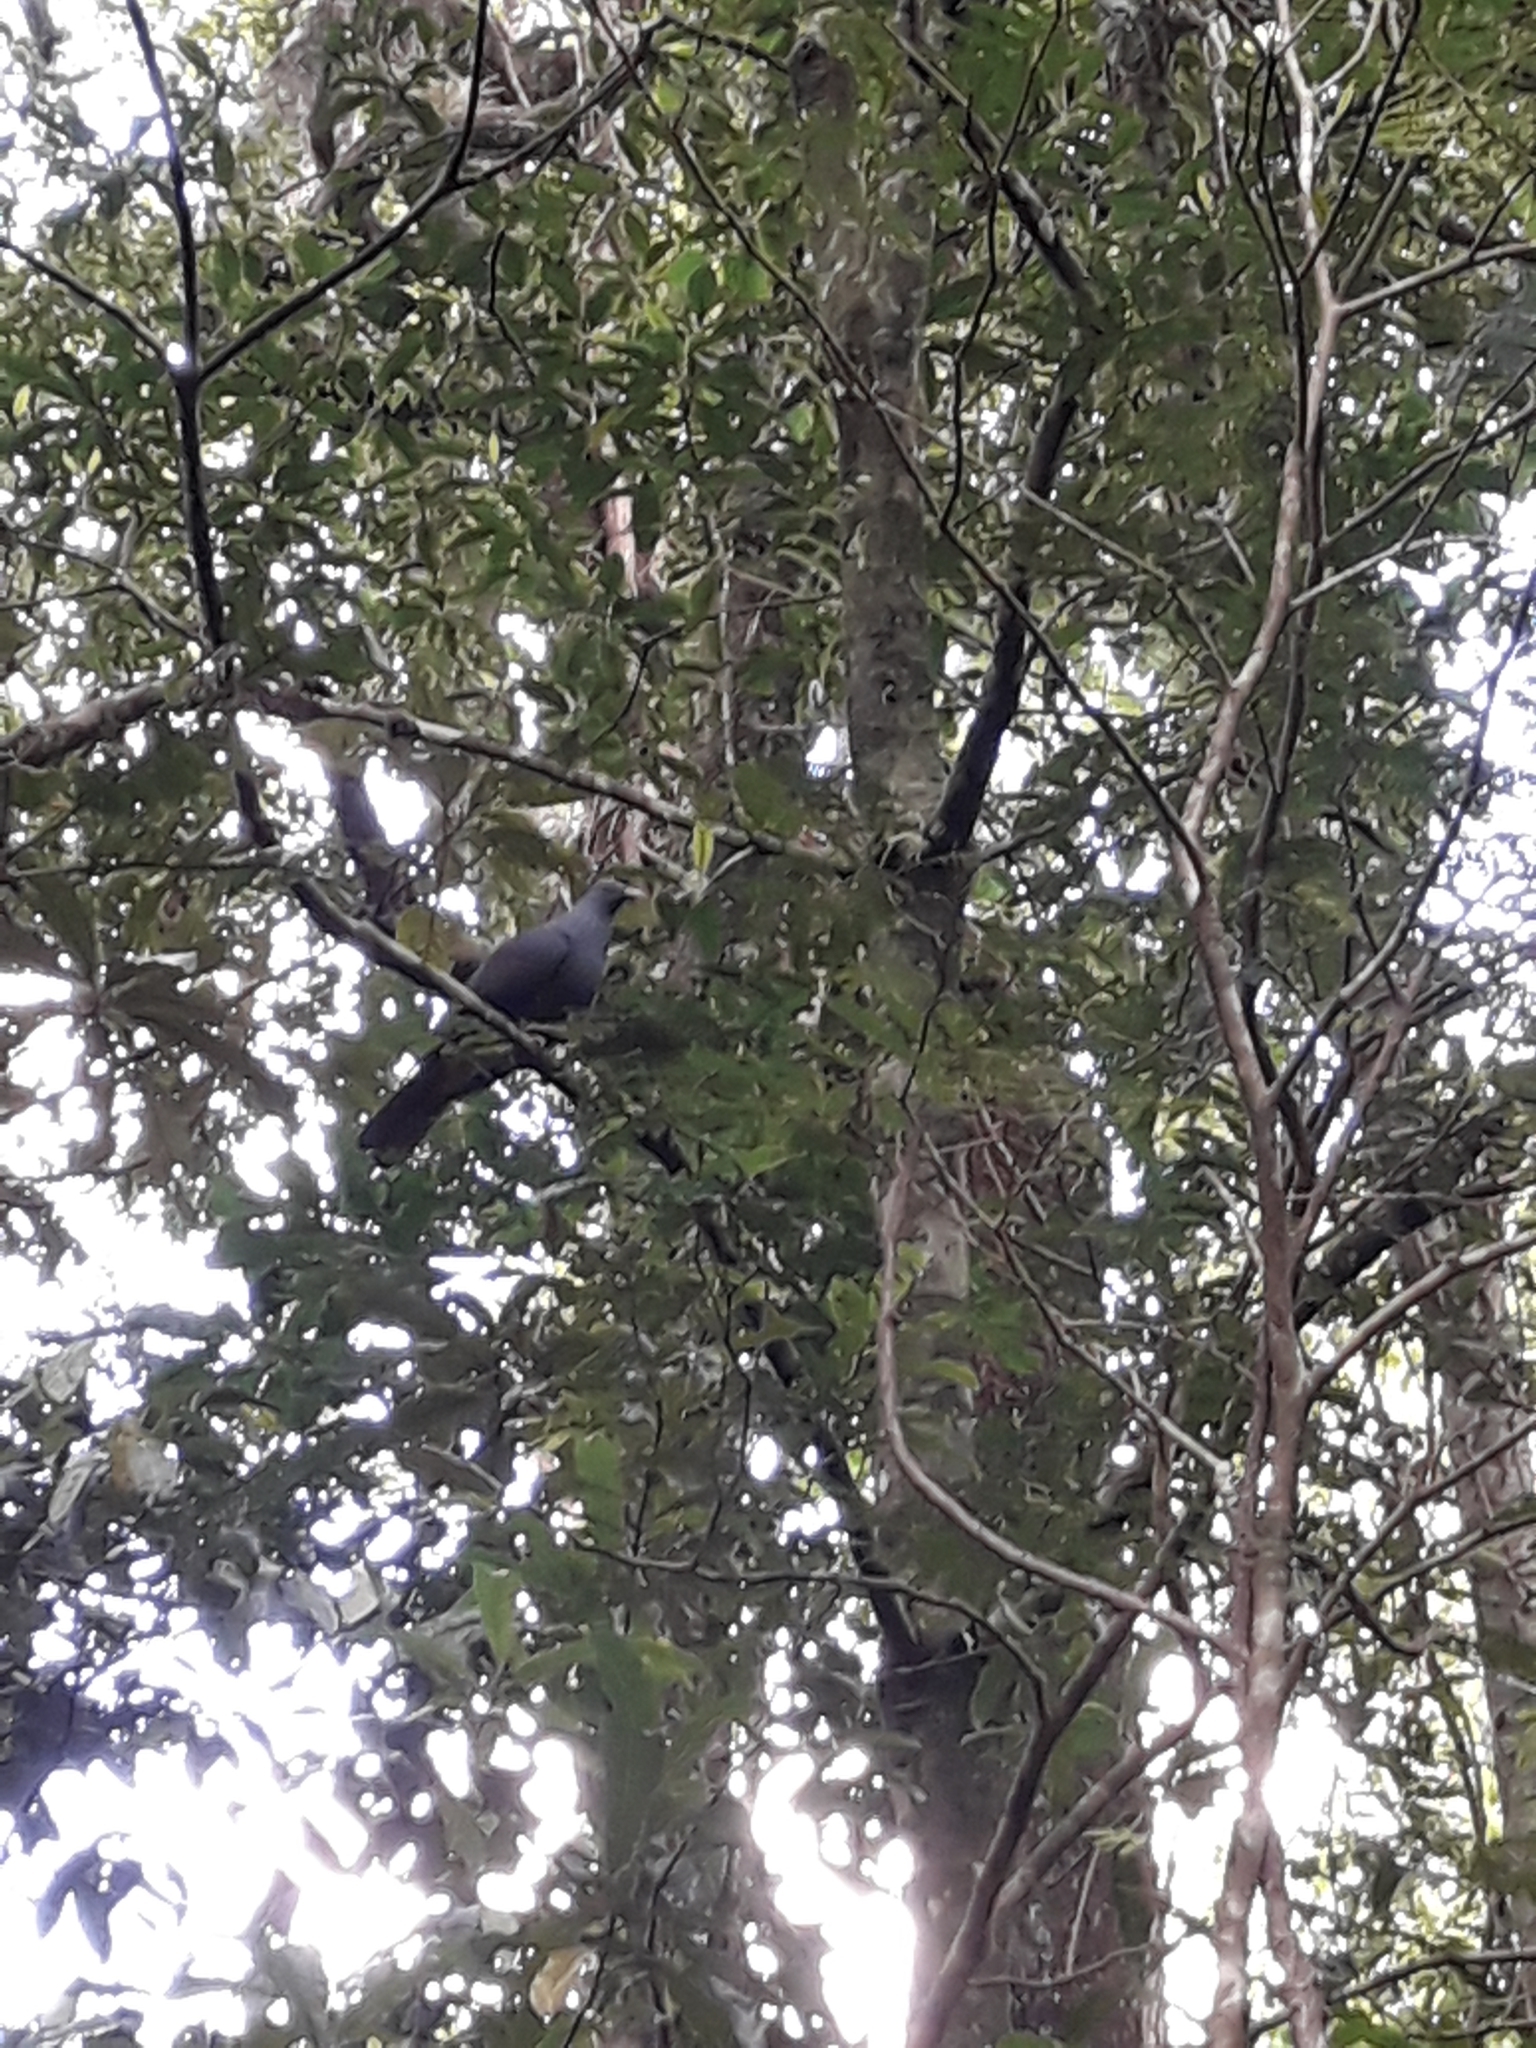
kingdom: Animalia
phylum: Chordata
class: Aves
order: Columbiformes
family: Columbidae
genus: Ducula
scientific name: Ducula goliath
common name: Goliath imperial pigeon
